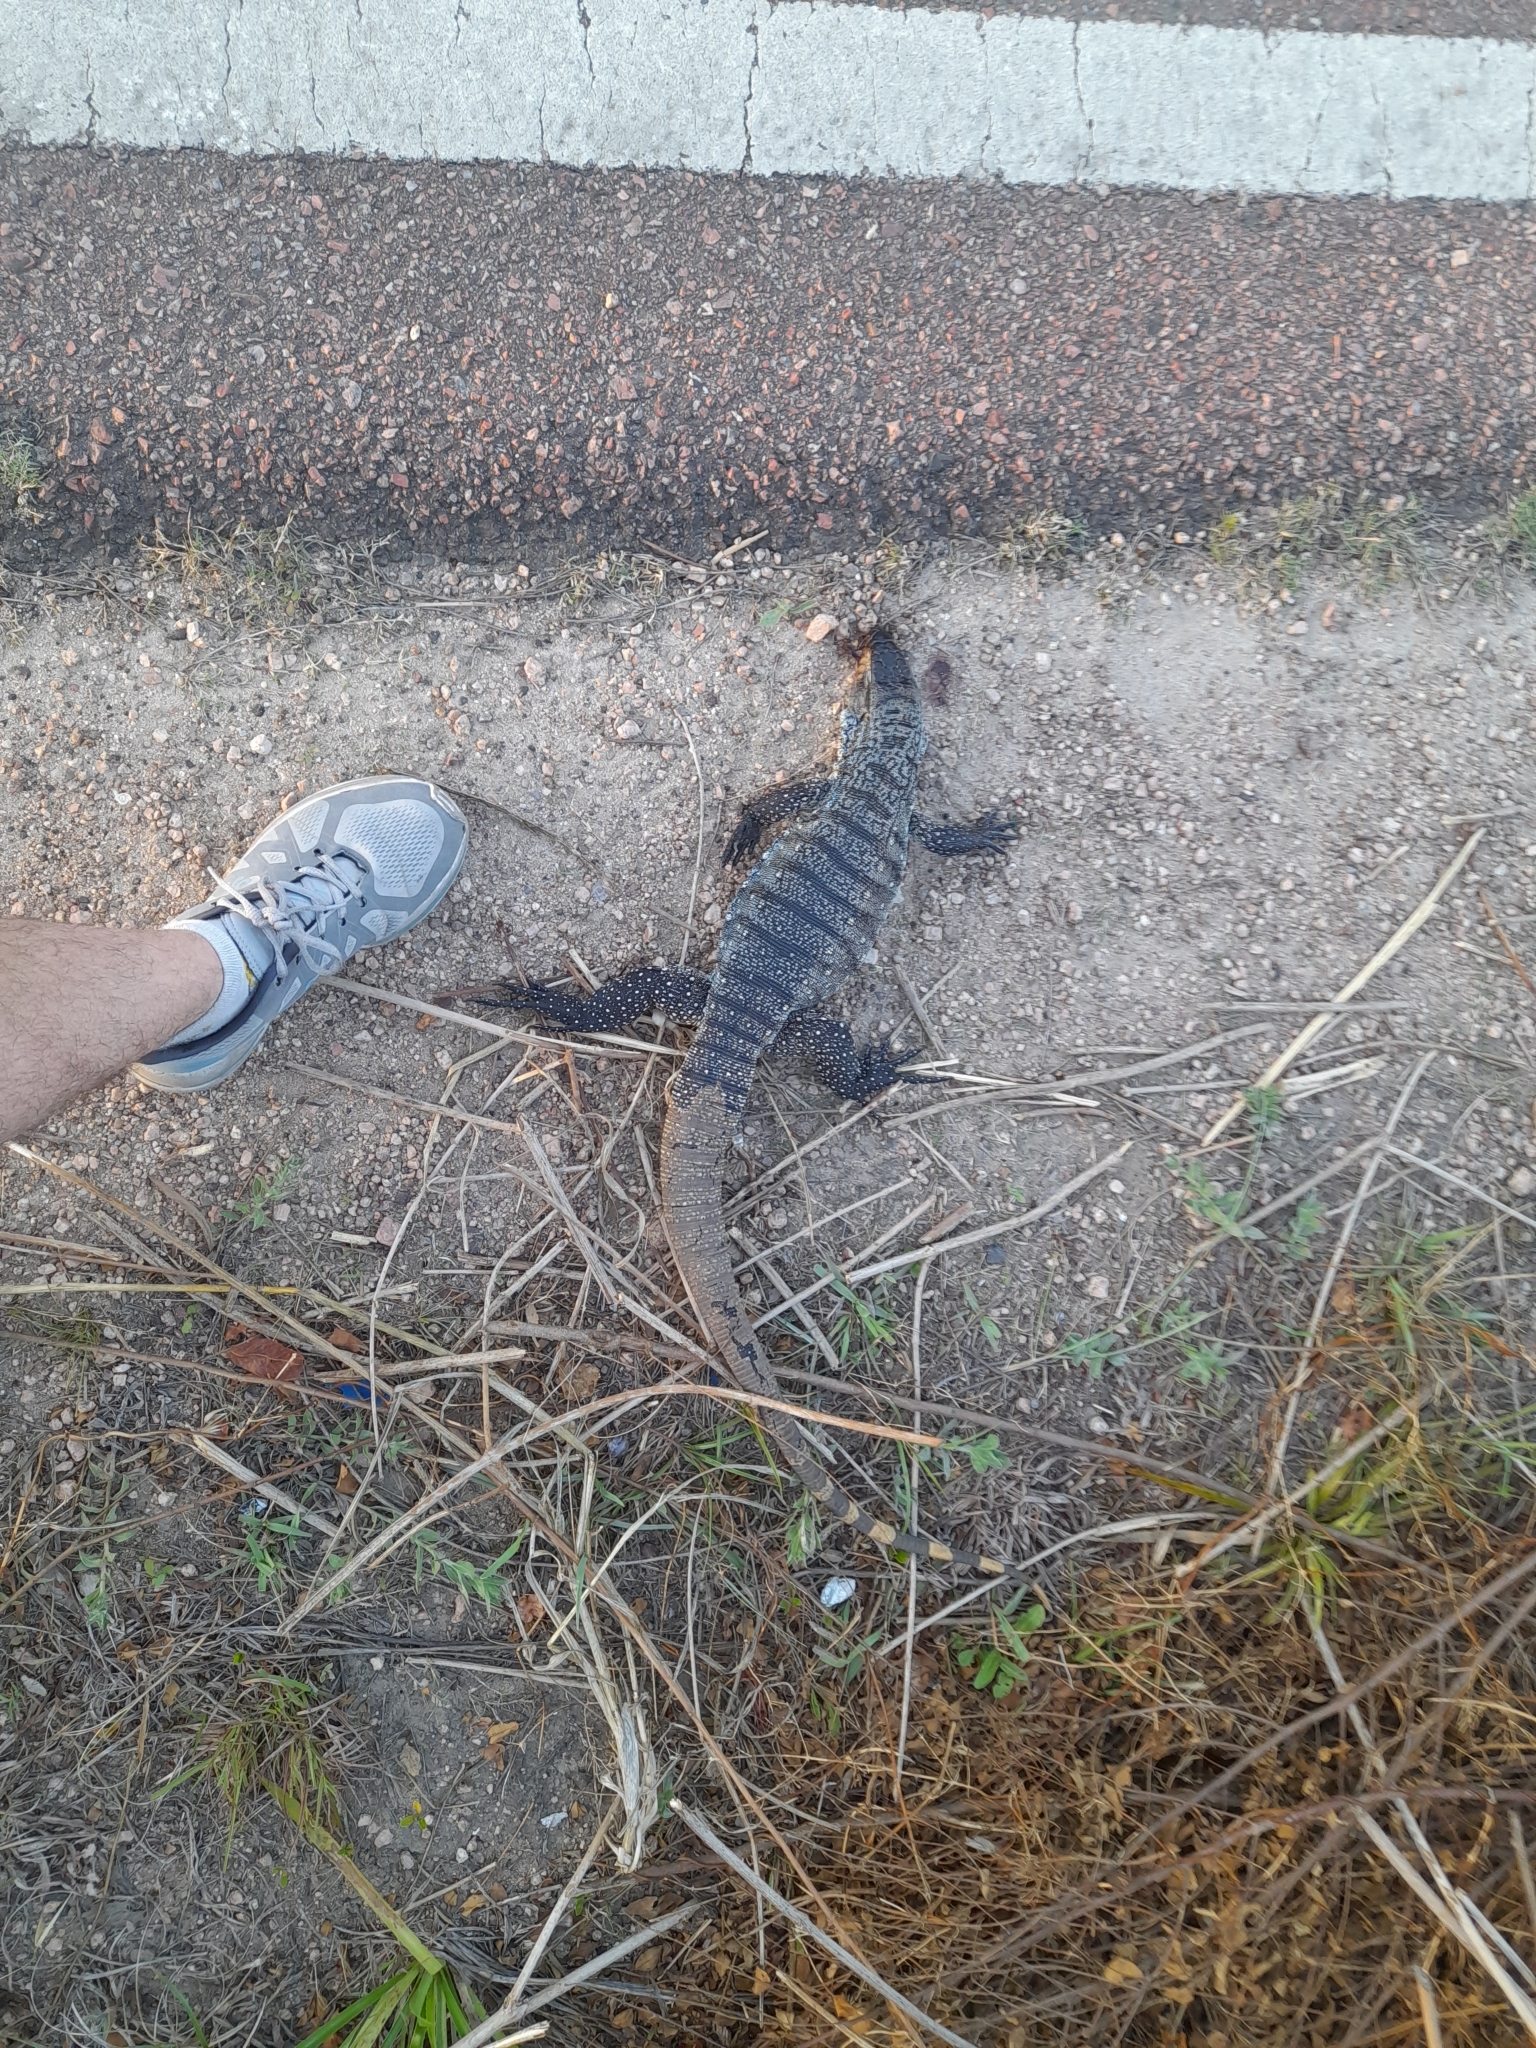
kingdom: Animalia
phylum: Chordata
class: Squamata
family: Teiidae
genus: Salvator
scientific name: Salvator merianae
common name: Argentine black and white tegu
